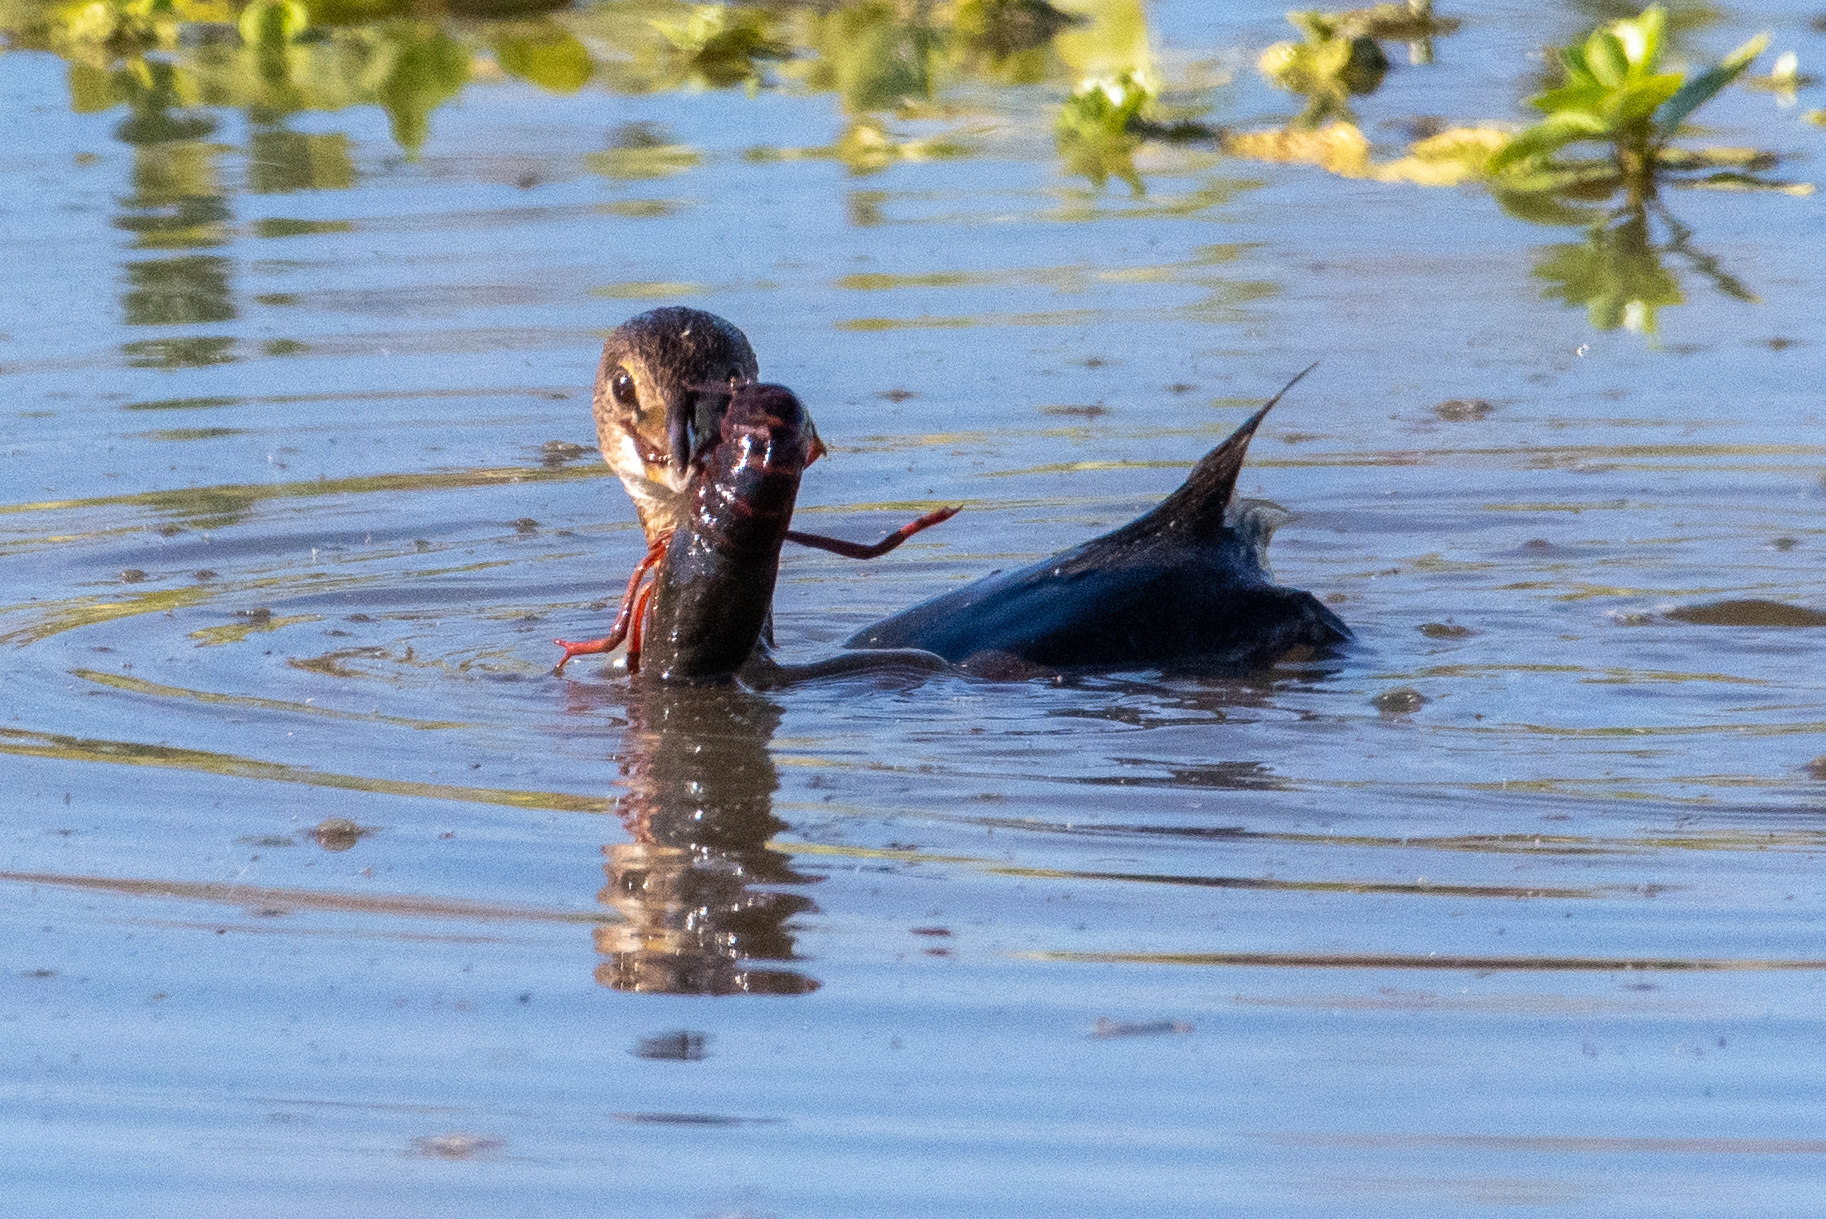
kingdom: Animalia
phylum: Chordata
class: Aves
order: Podicipediformes
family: Podicipedidae
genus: Podilymbus
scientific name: Podilymbus podiceps
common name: Pied-billed grebe
